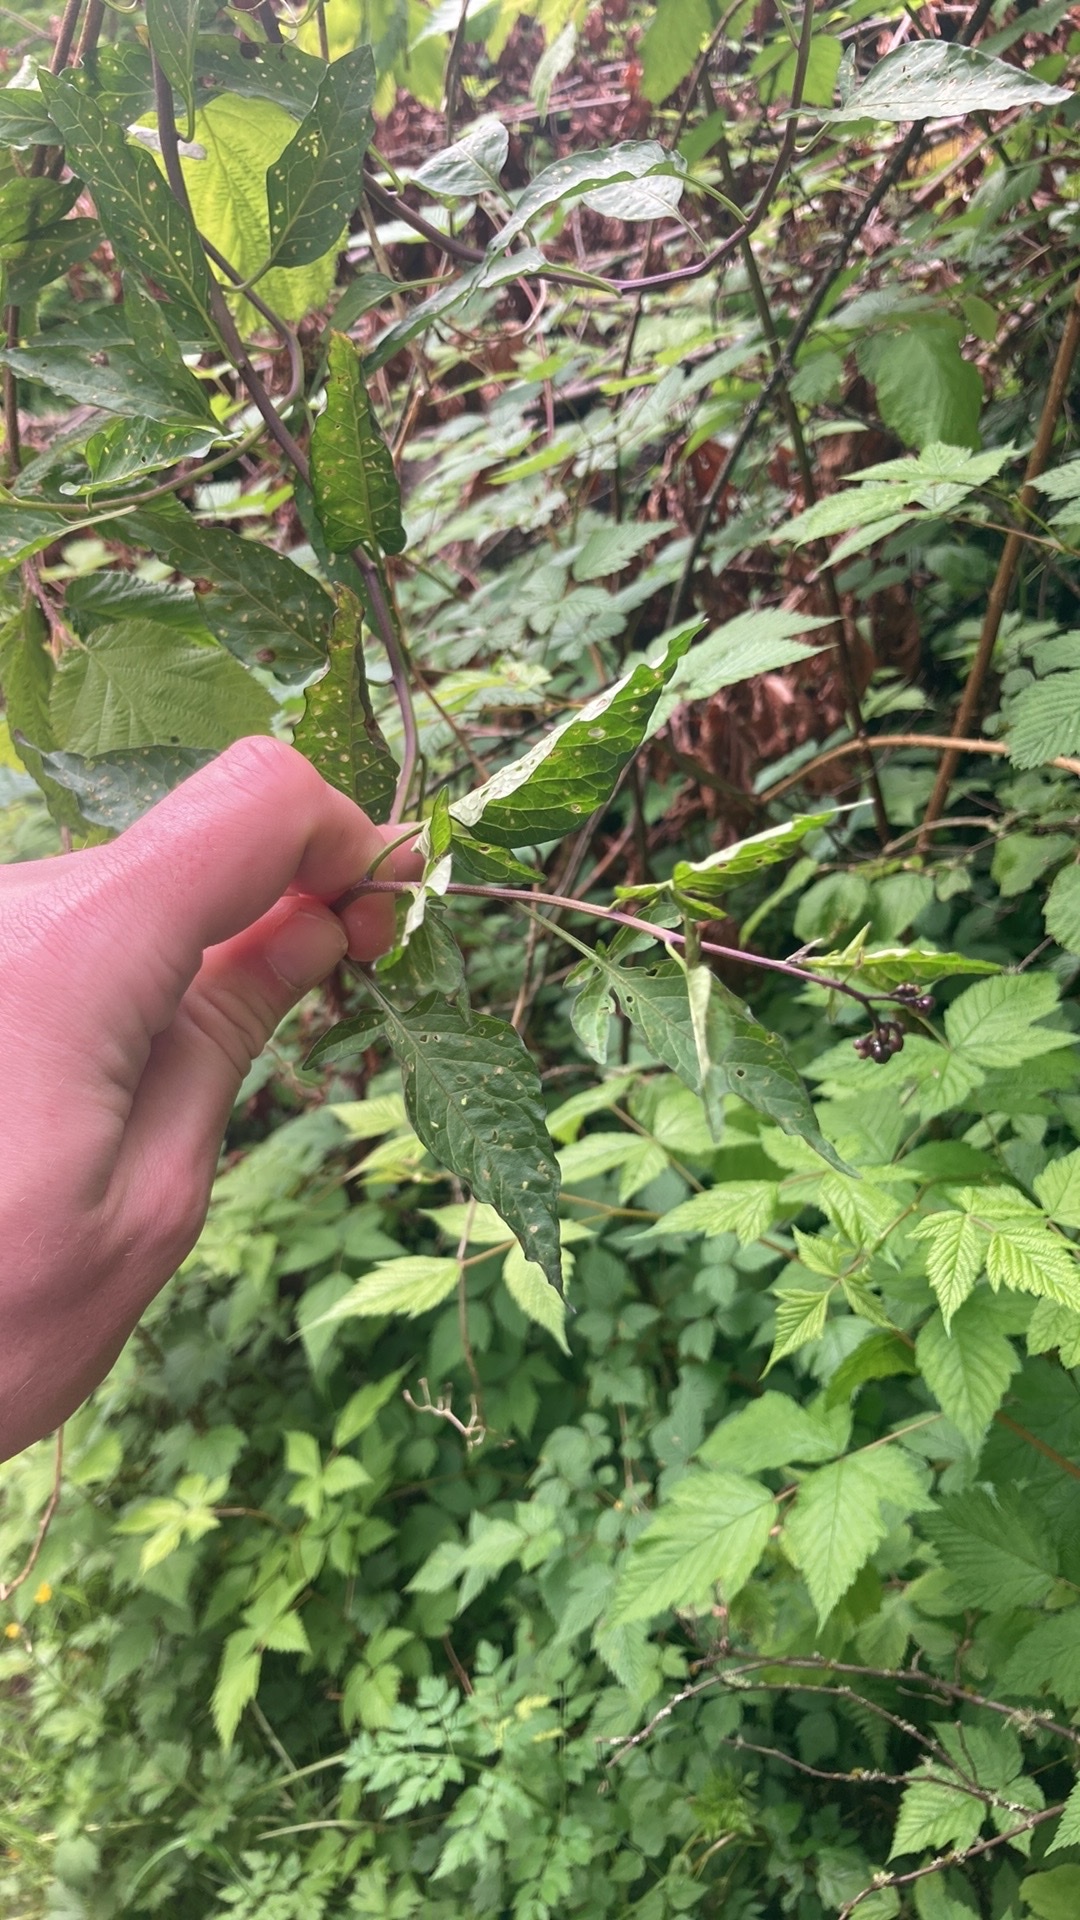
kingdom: Plantae
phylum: Tracheophyta
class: Magnoliopsida
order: Solanales
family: Solanaceae
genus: Solanum
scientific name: Solanum dulcamara
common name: Climbing nightshade
